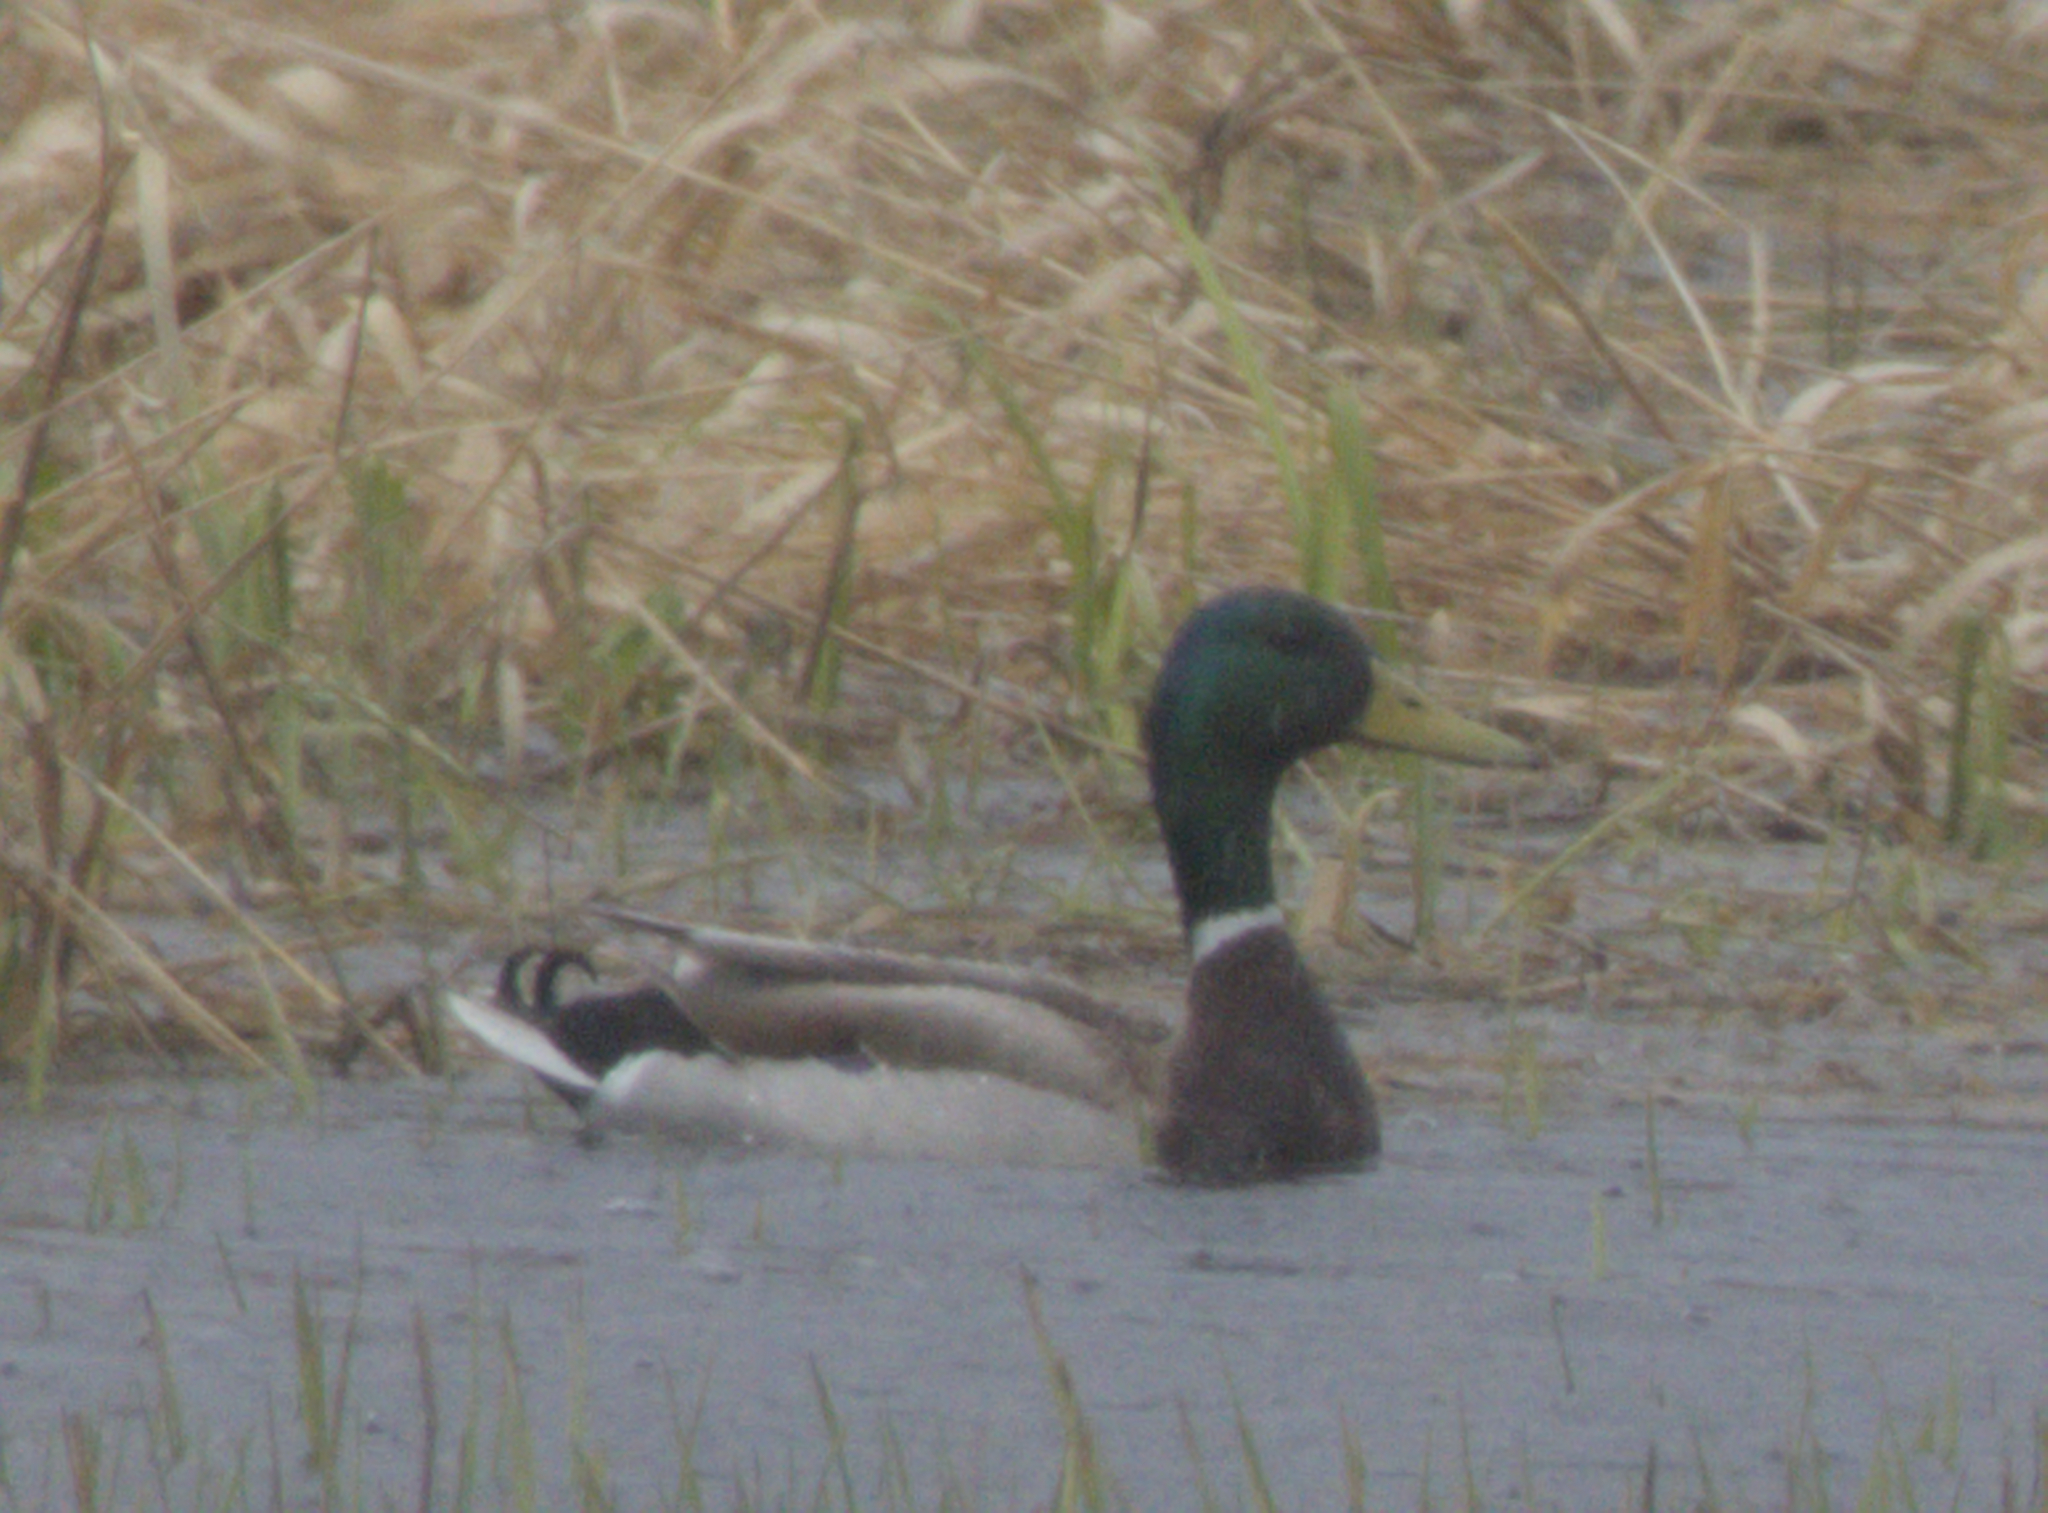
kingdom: Animalia
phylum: Chordata
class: Aves
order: Anseriformes
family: Anatidae
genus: Anas
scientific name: Anas platyrhynchos
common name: Mallard
